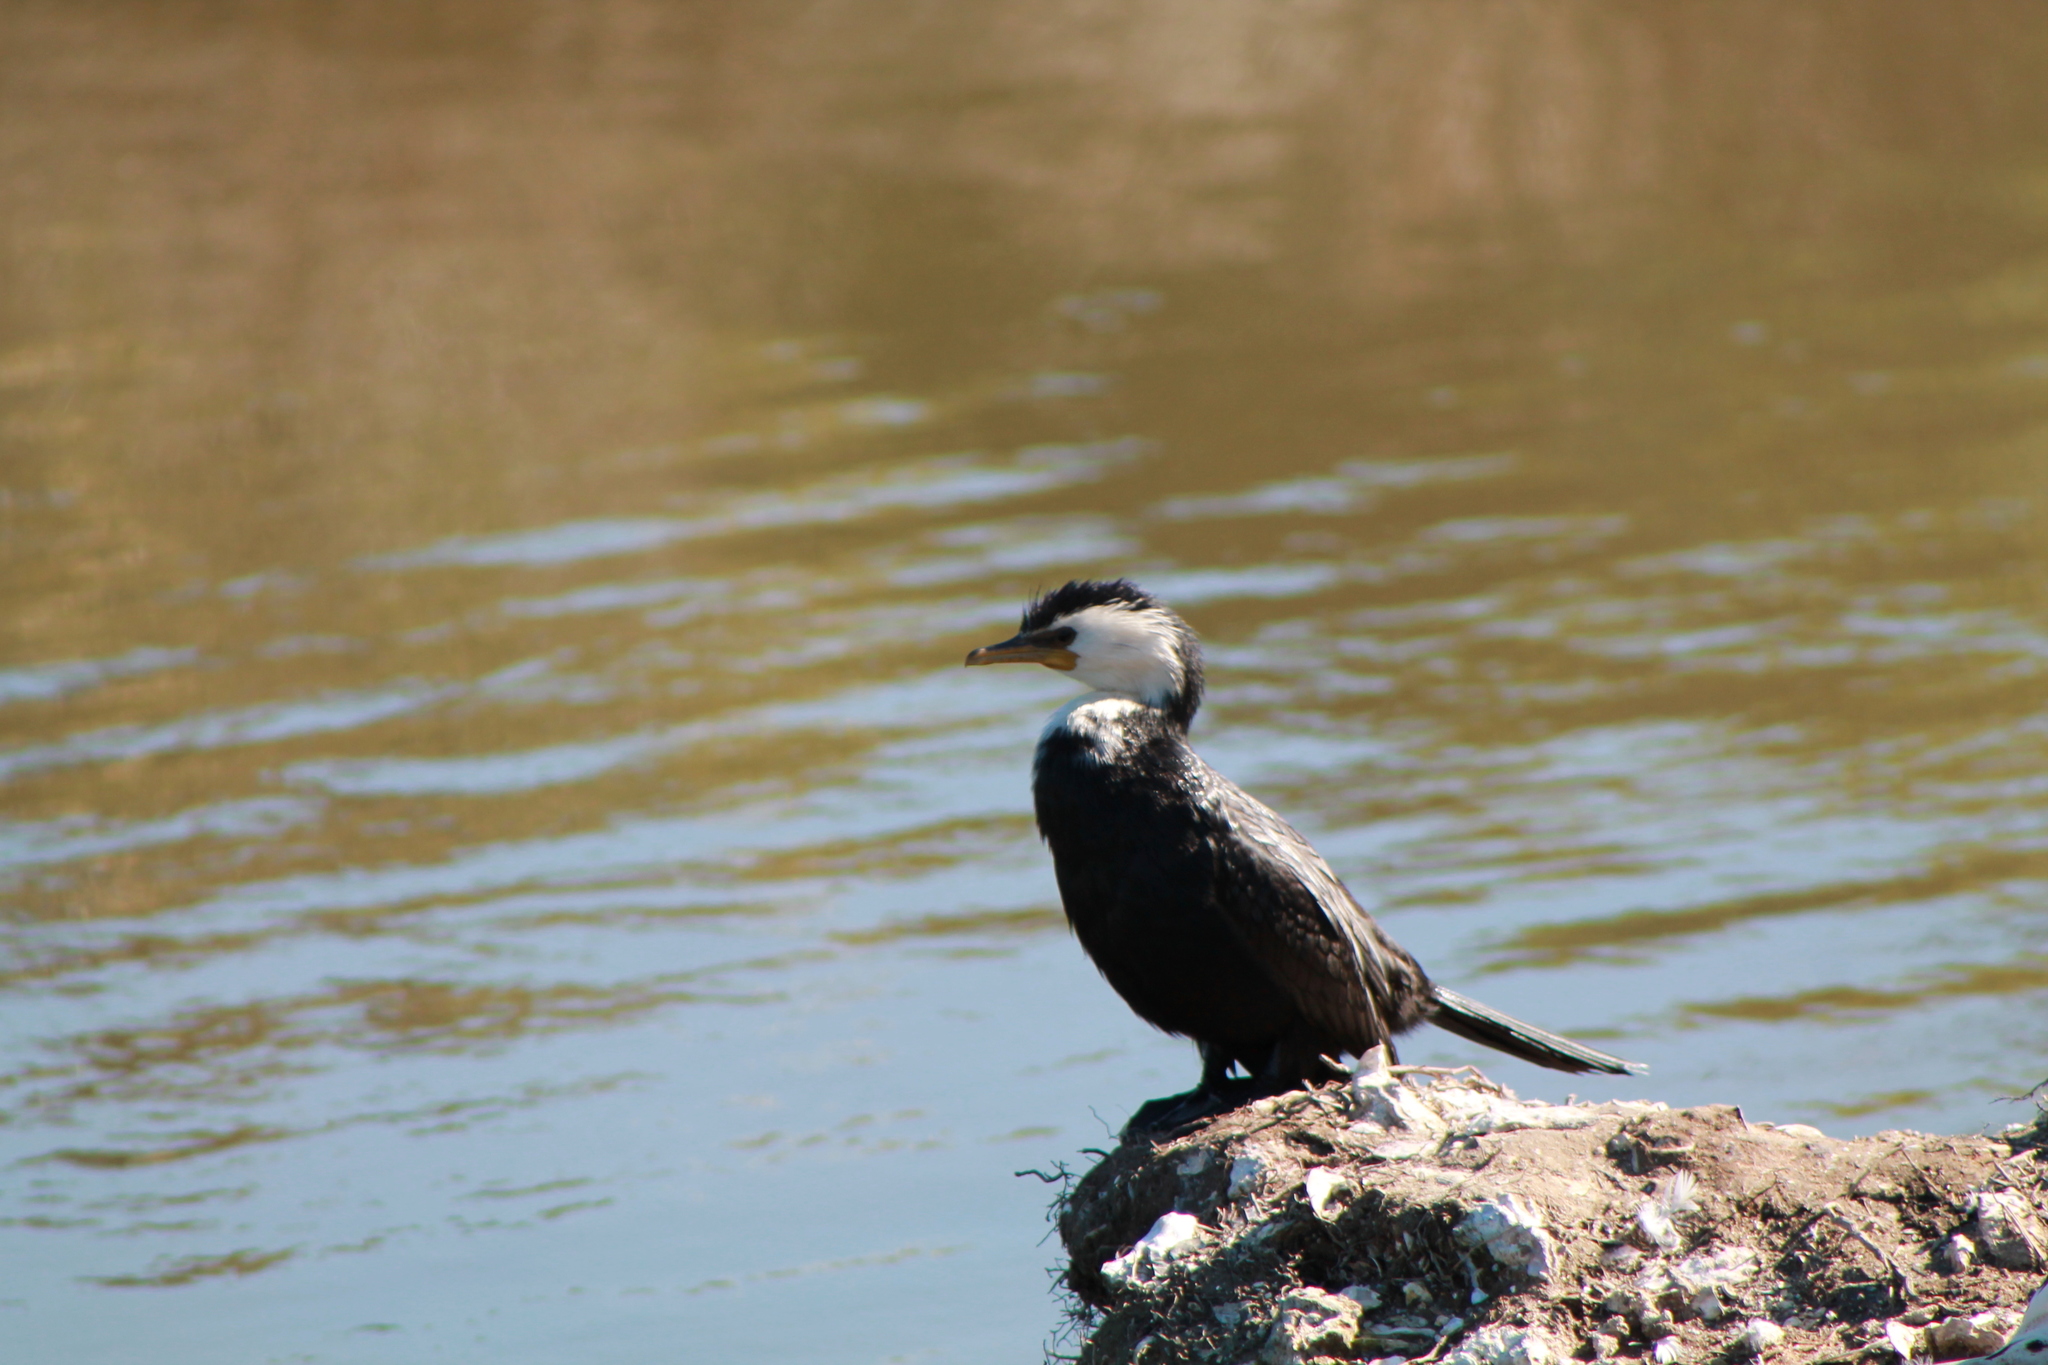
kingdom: Animalia
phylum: Chordata
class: Aves
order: Suliformes
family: Phalacrocoracidae
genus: Microcarbo
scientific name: Microcarbo melanoleucos
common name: Little pied cormorant
